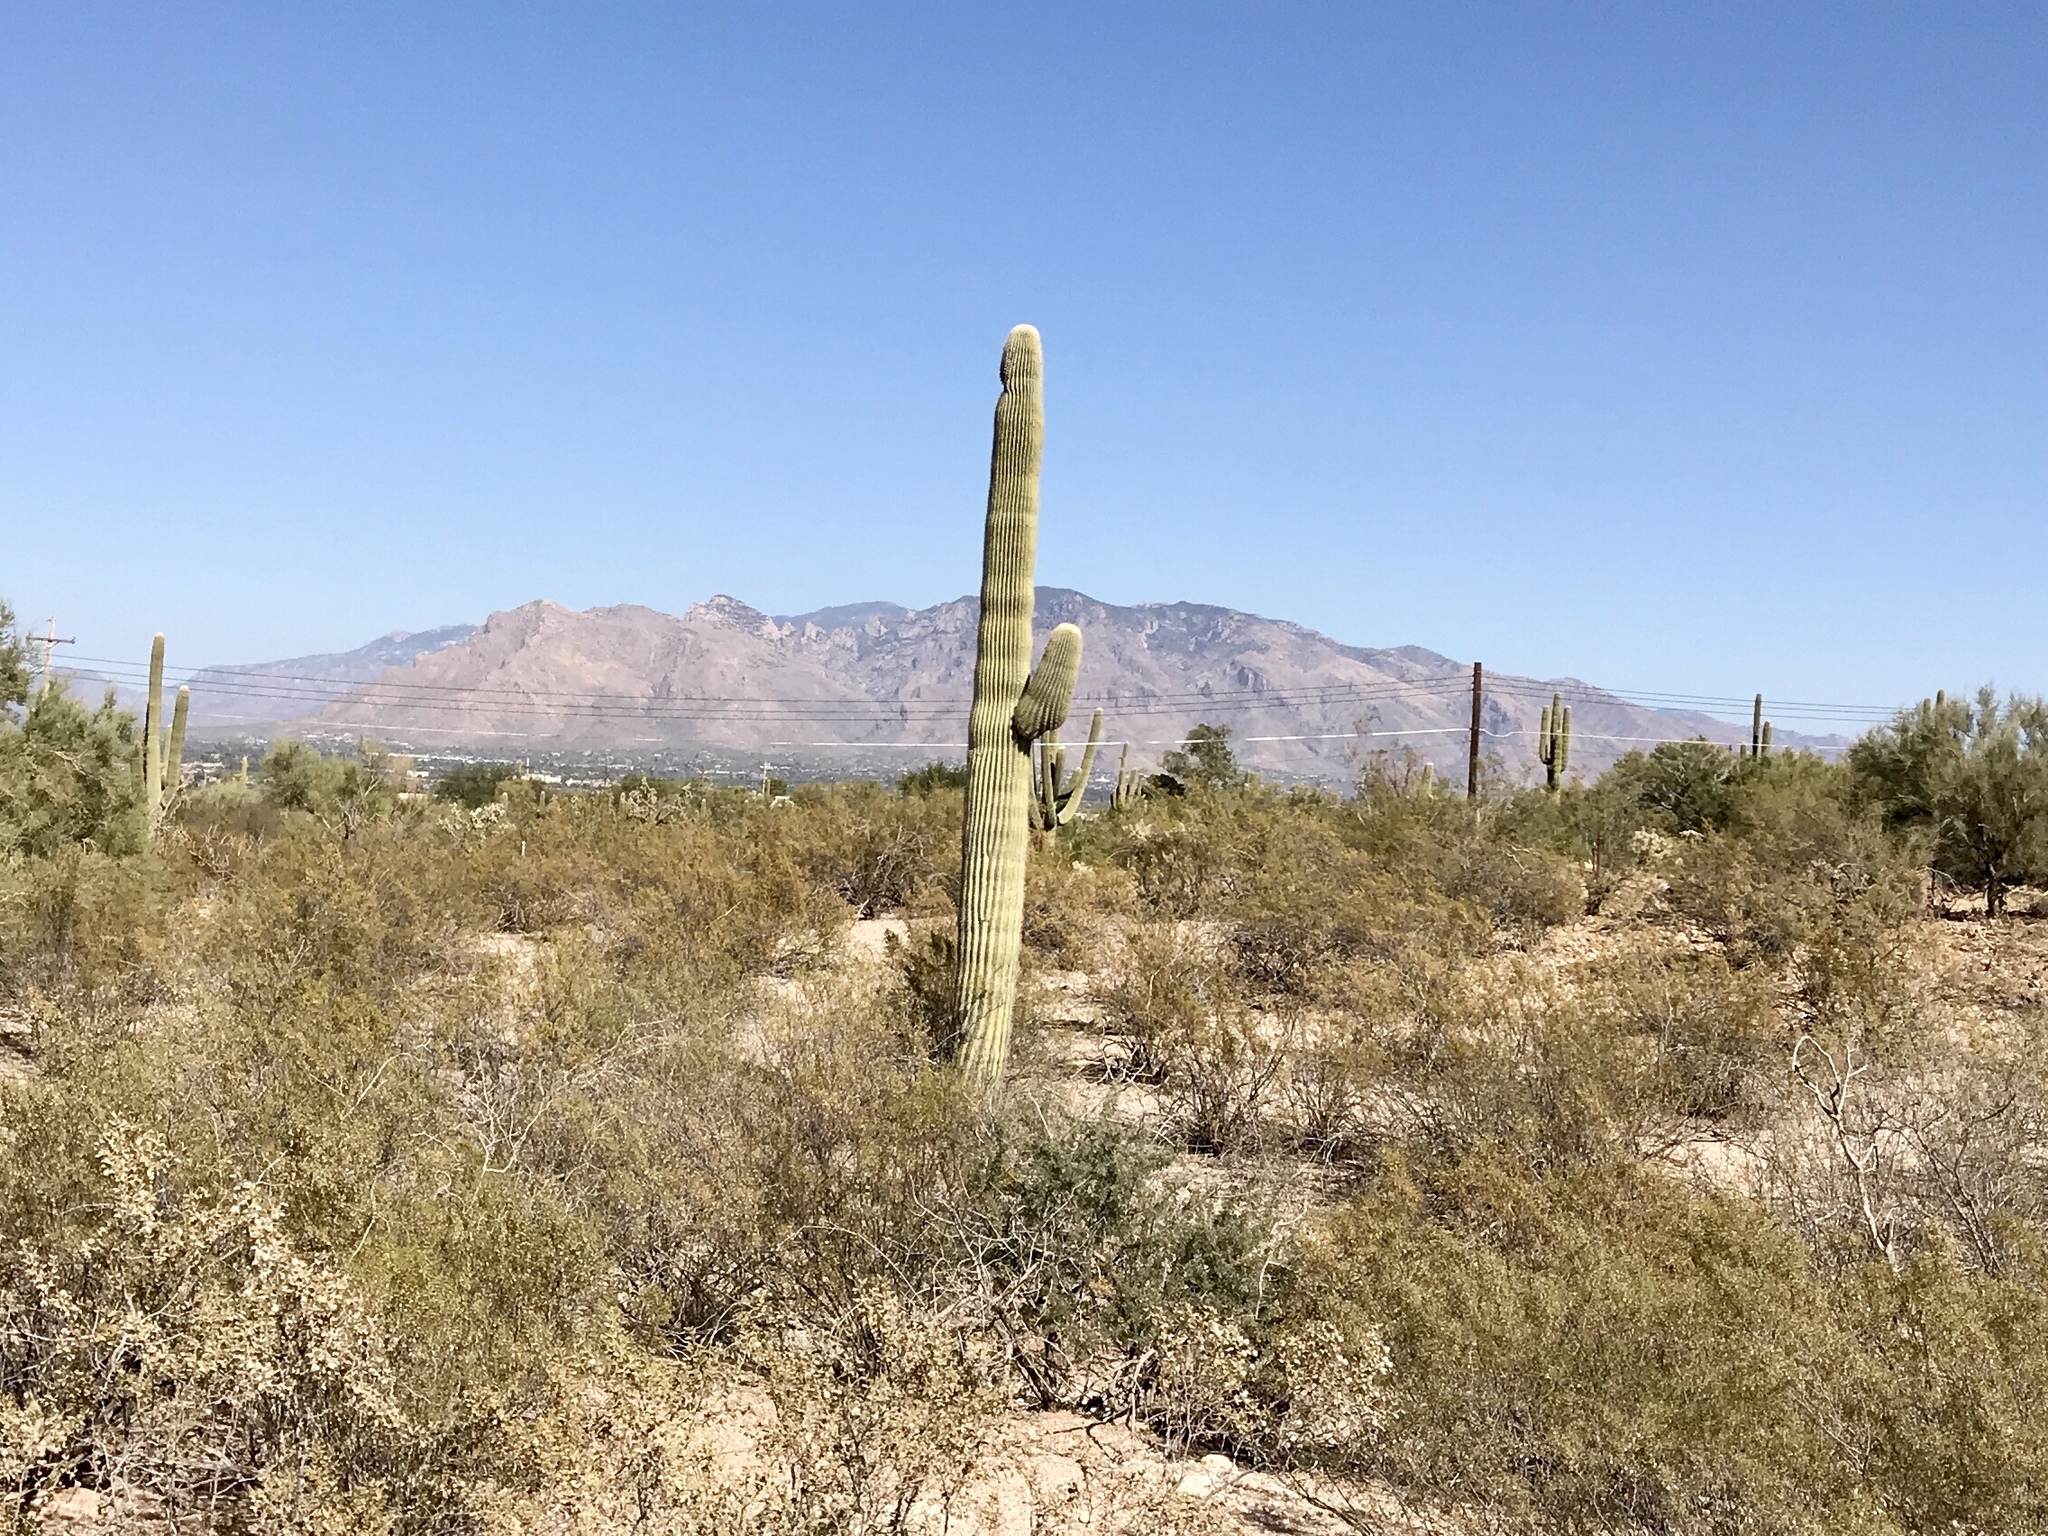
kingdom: Plantae
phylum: Tracheophyta
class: Magnoliopsida
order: Caryophyllales
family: Cactaceae
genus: Carnegiea
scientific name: Carnegiea gigantea
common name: Saguaro
